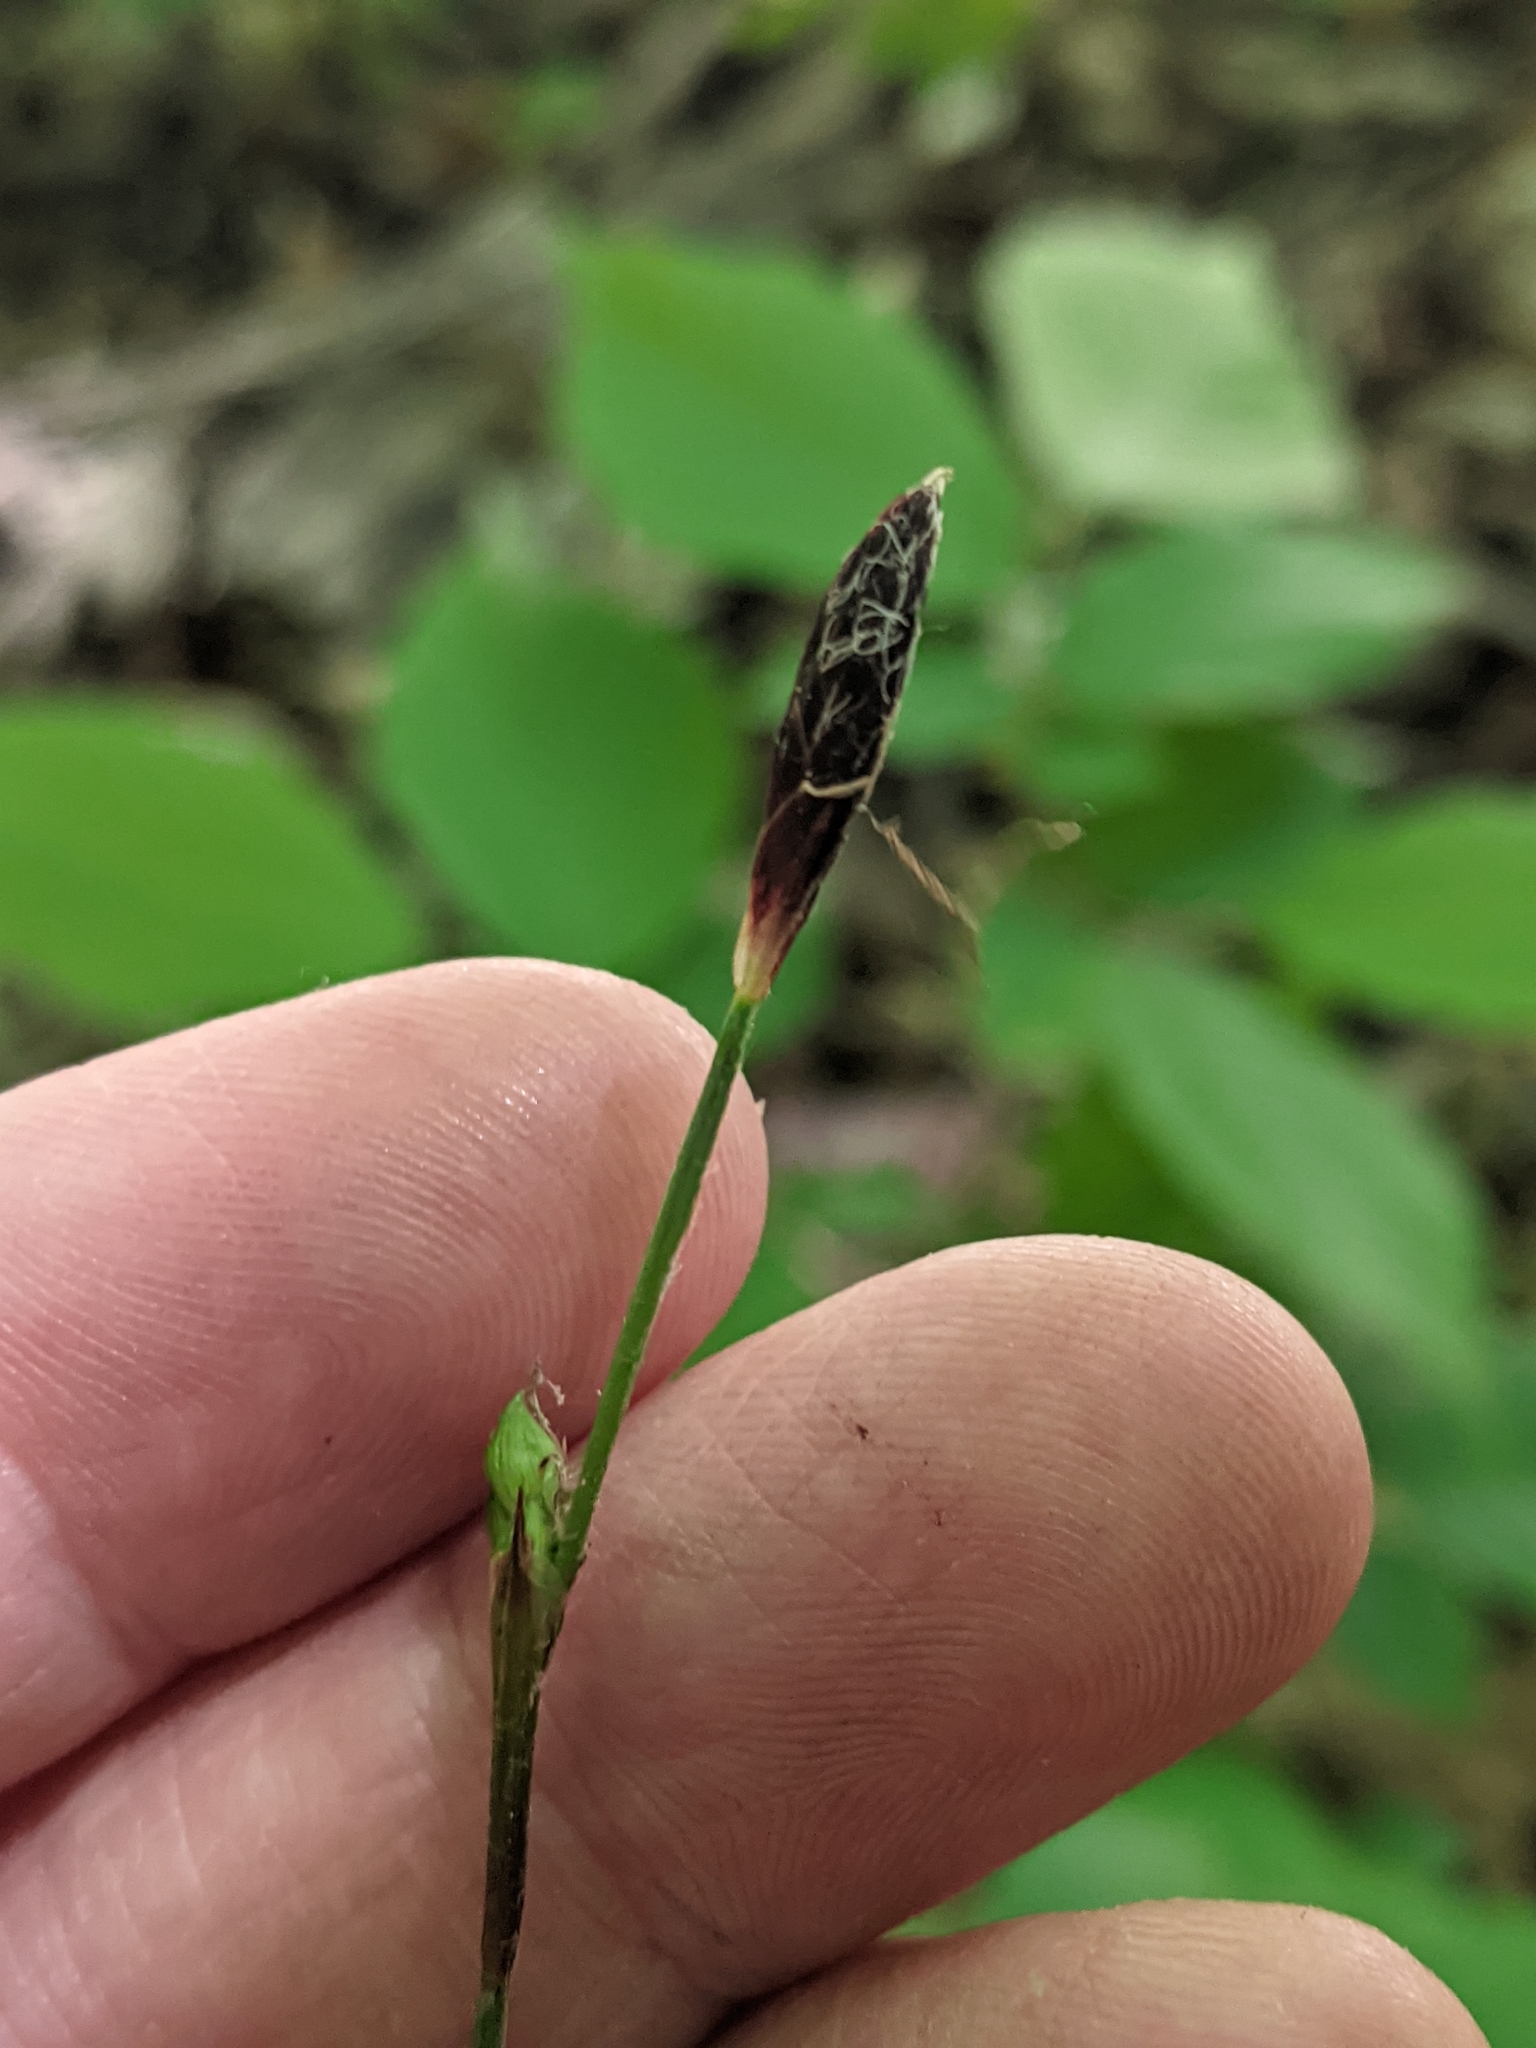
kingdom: Plantae
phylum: Tracheophyta
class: Liliopsida
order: Poales
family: Cyperaceae
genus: Carex
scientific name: Carex plantaginea
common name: Plantain-leaved sedge
